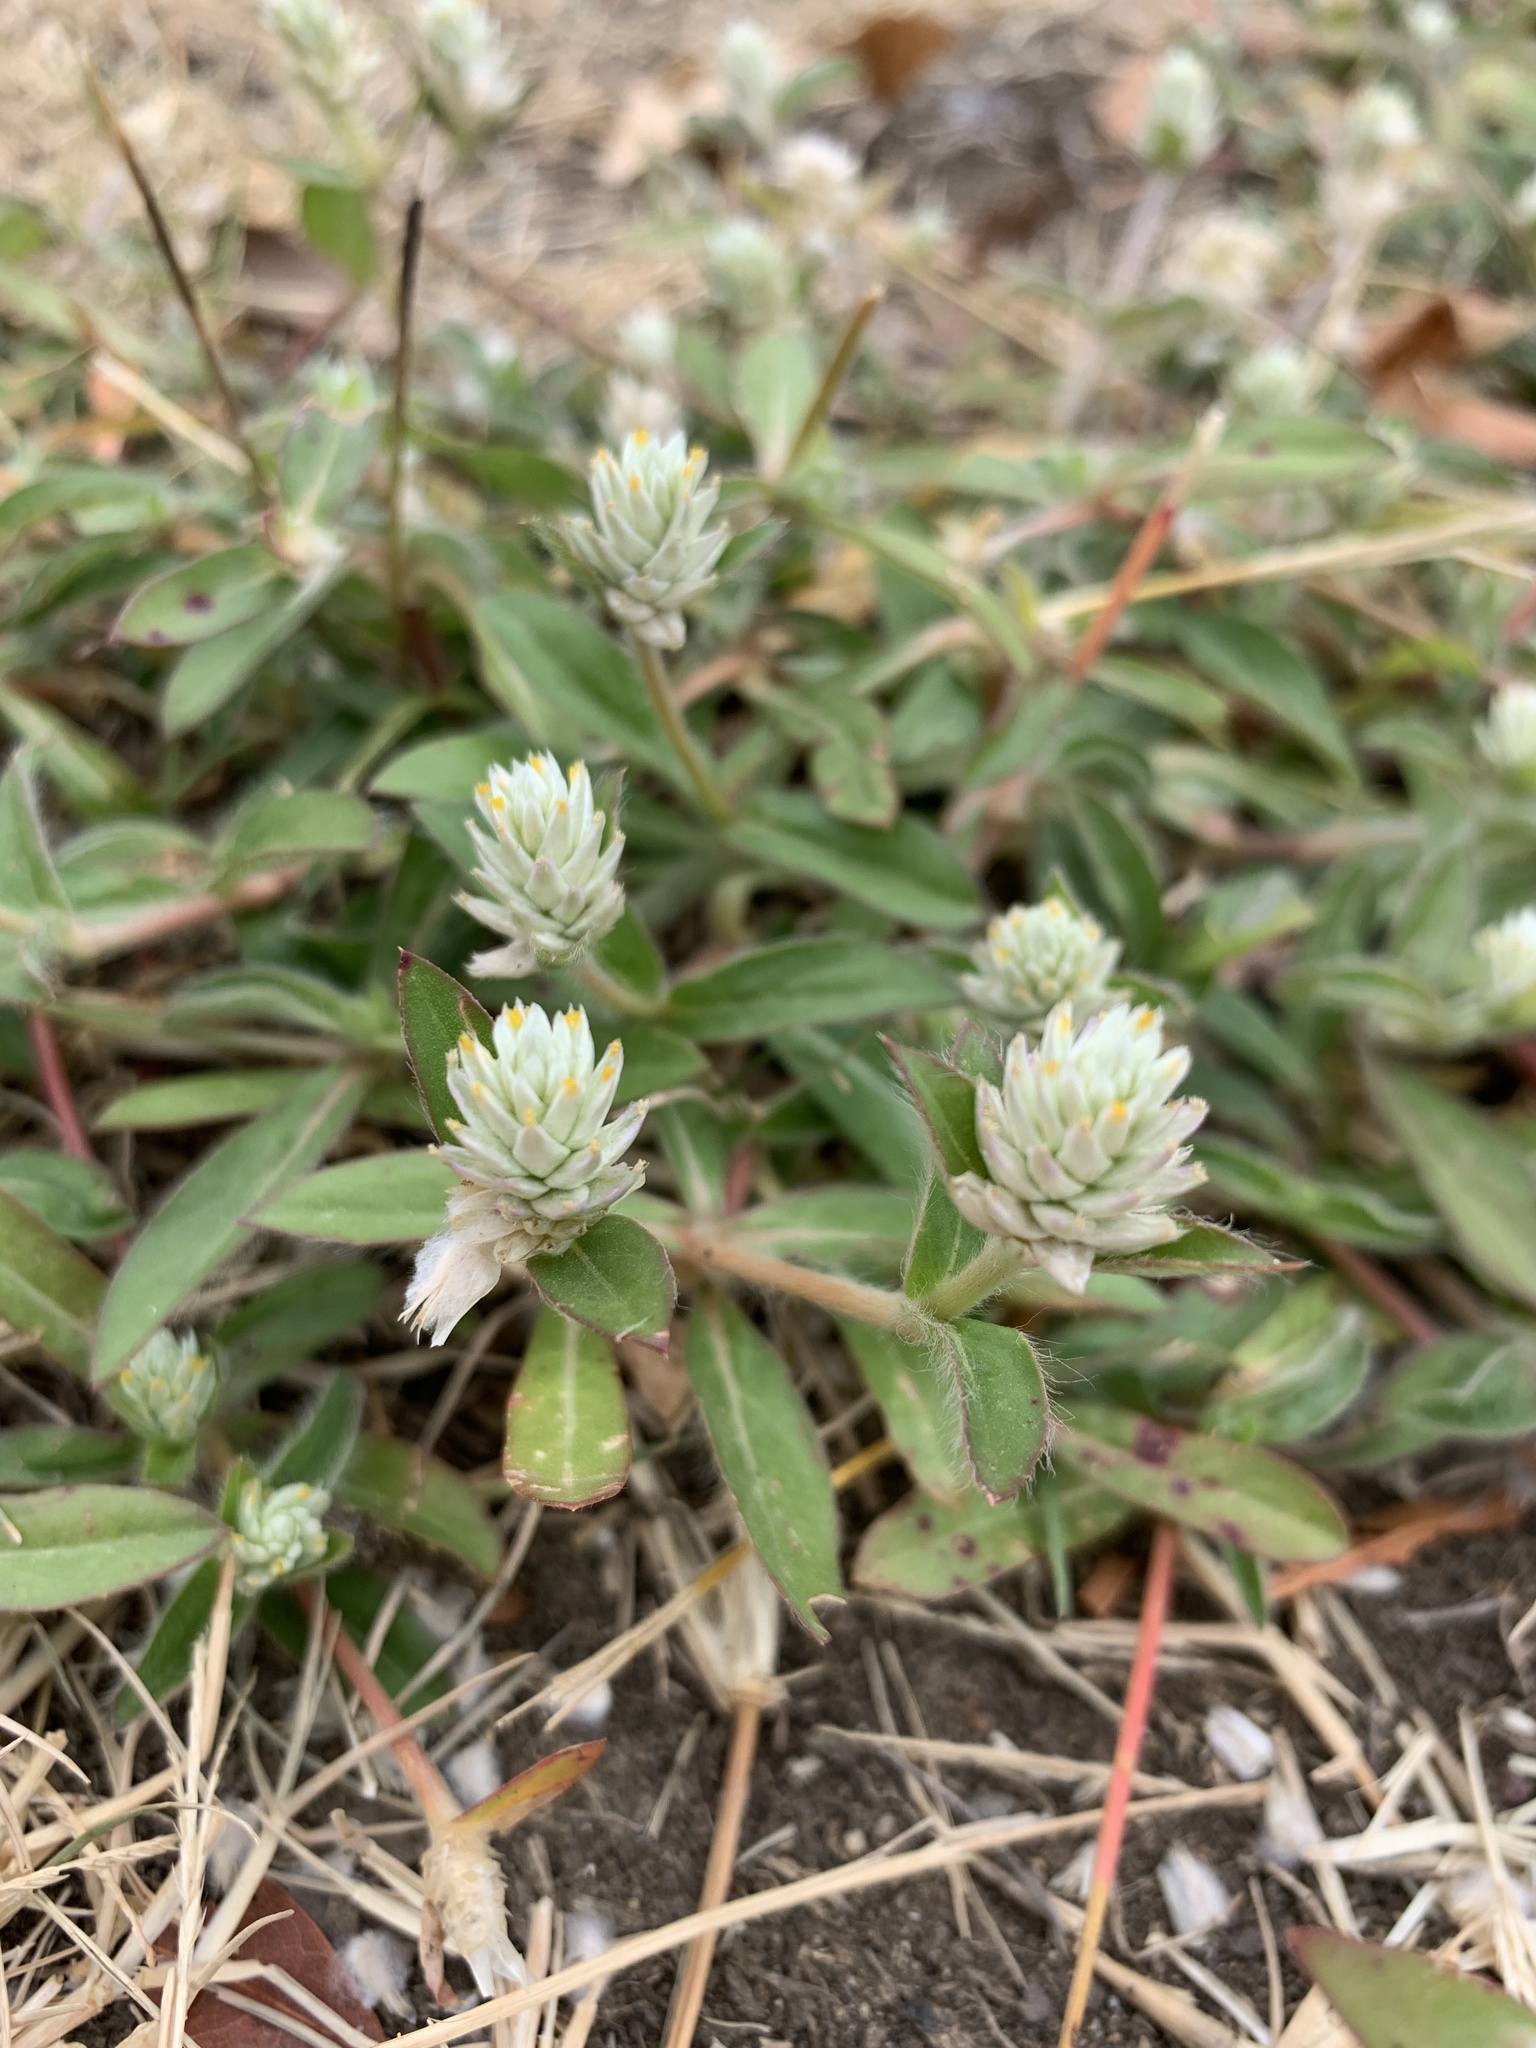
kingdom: Plantae
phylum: Tracheophyta
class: Magnoliopsida
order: Caryophyllales
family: Amaranthaceae
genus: Gomphrena
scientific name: Gomphrena celosioides
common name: Gomphrena-weed
